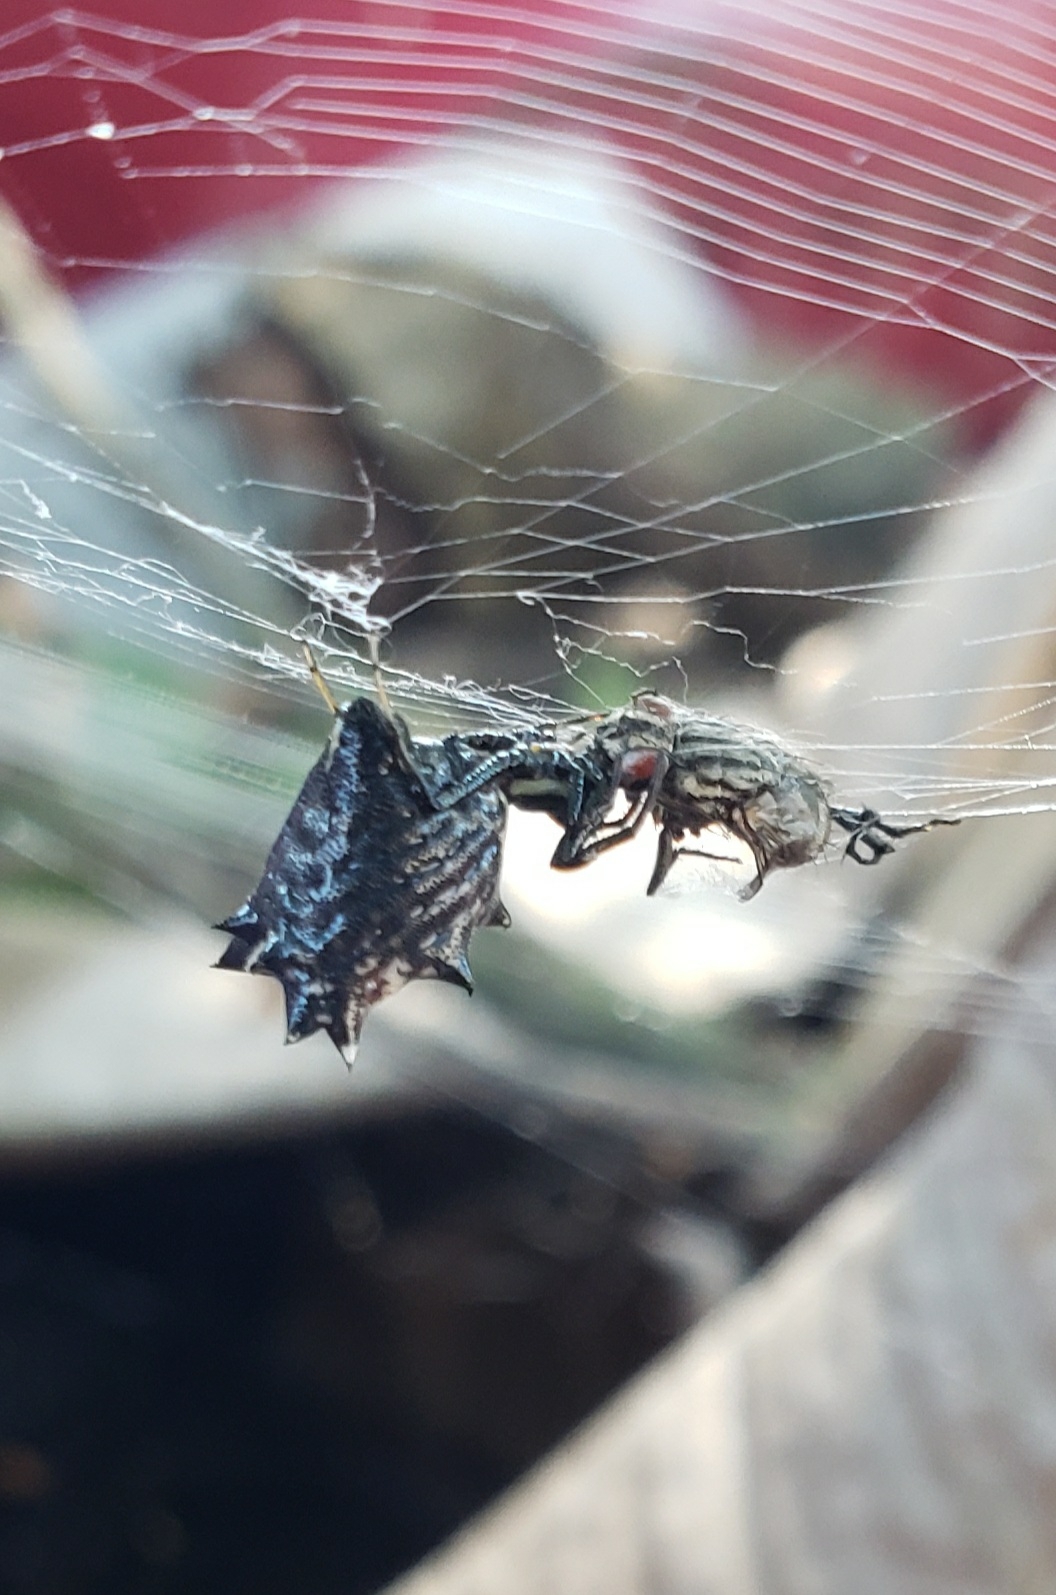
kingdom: Animalia
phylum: Arthropoda
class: Arachnida
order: Araneae
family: Araneidae
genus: Micrathena
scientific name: Micrathena gracilis
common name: Orb weavers
